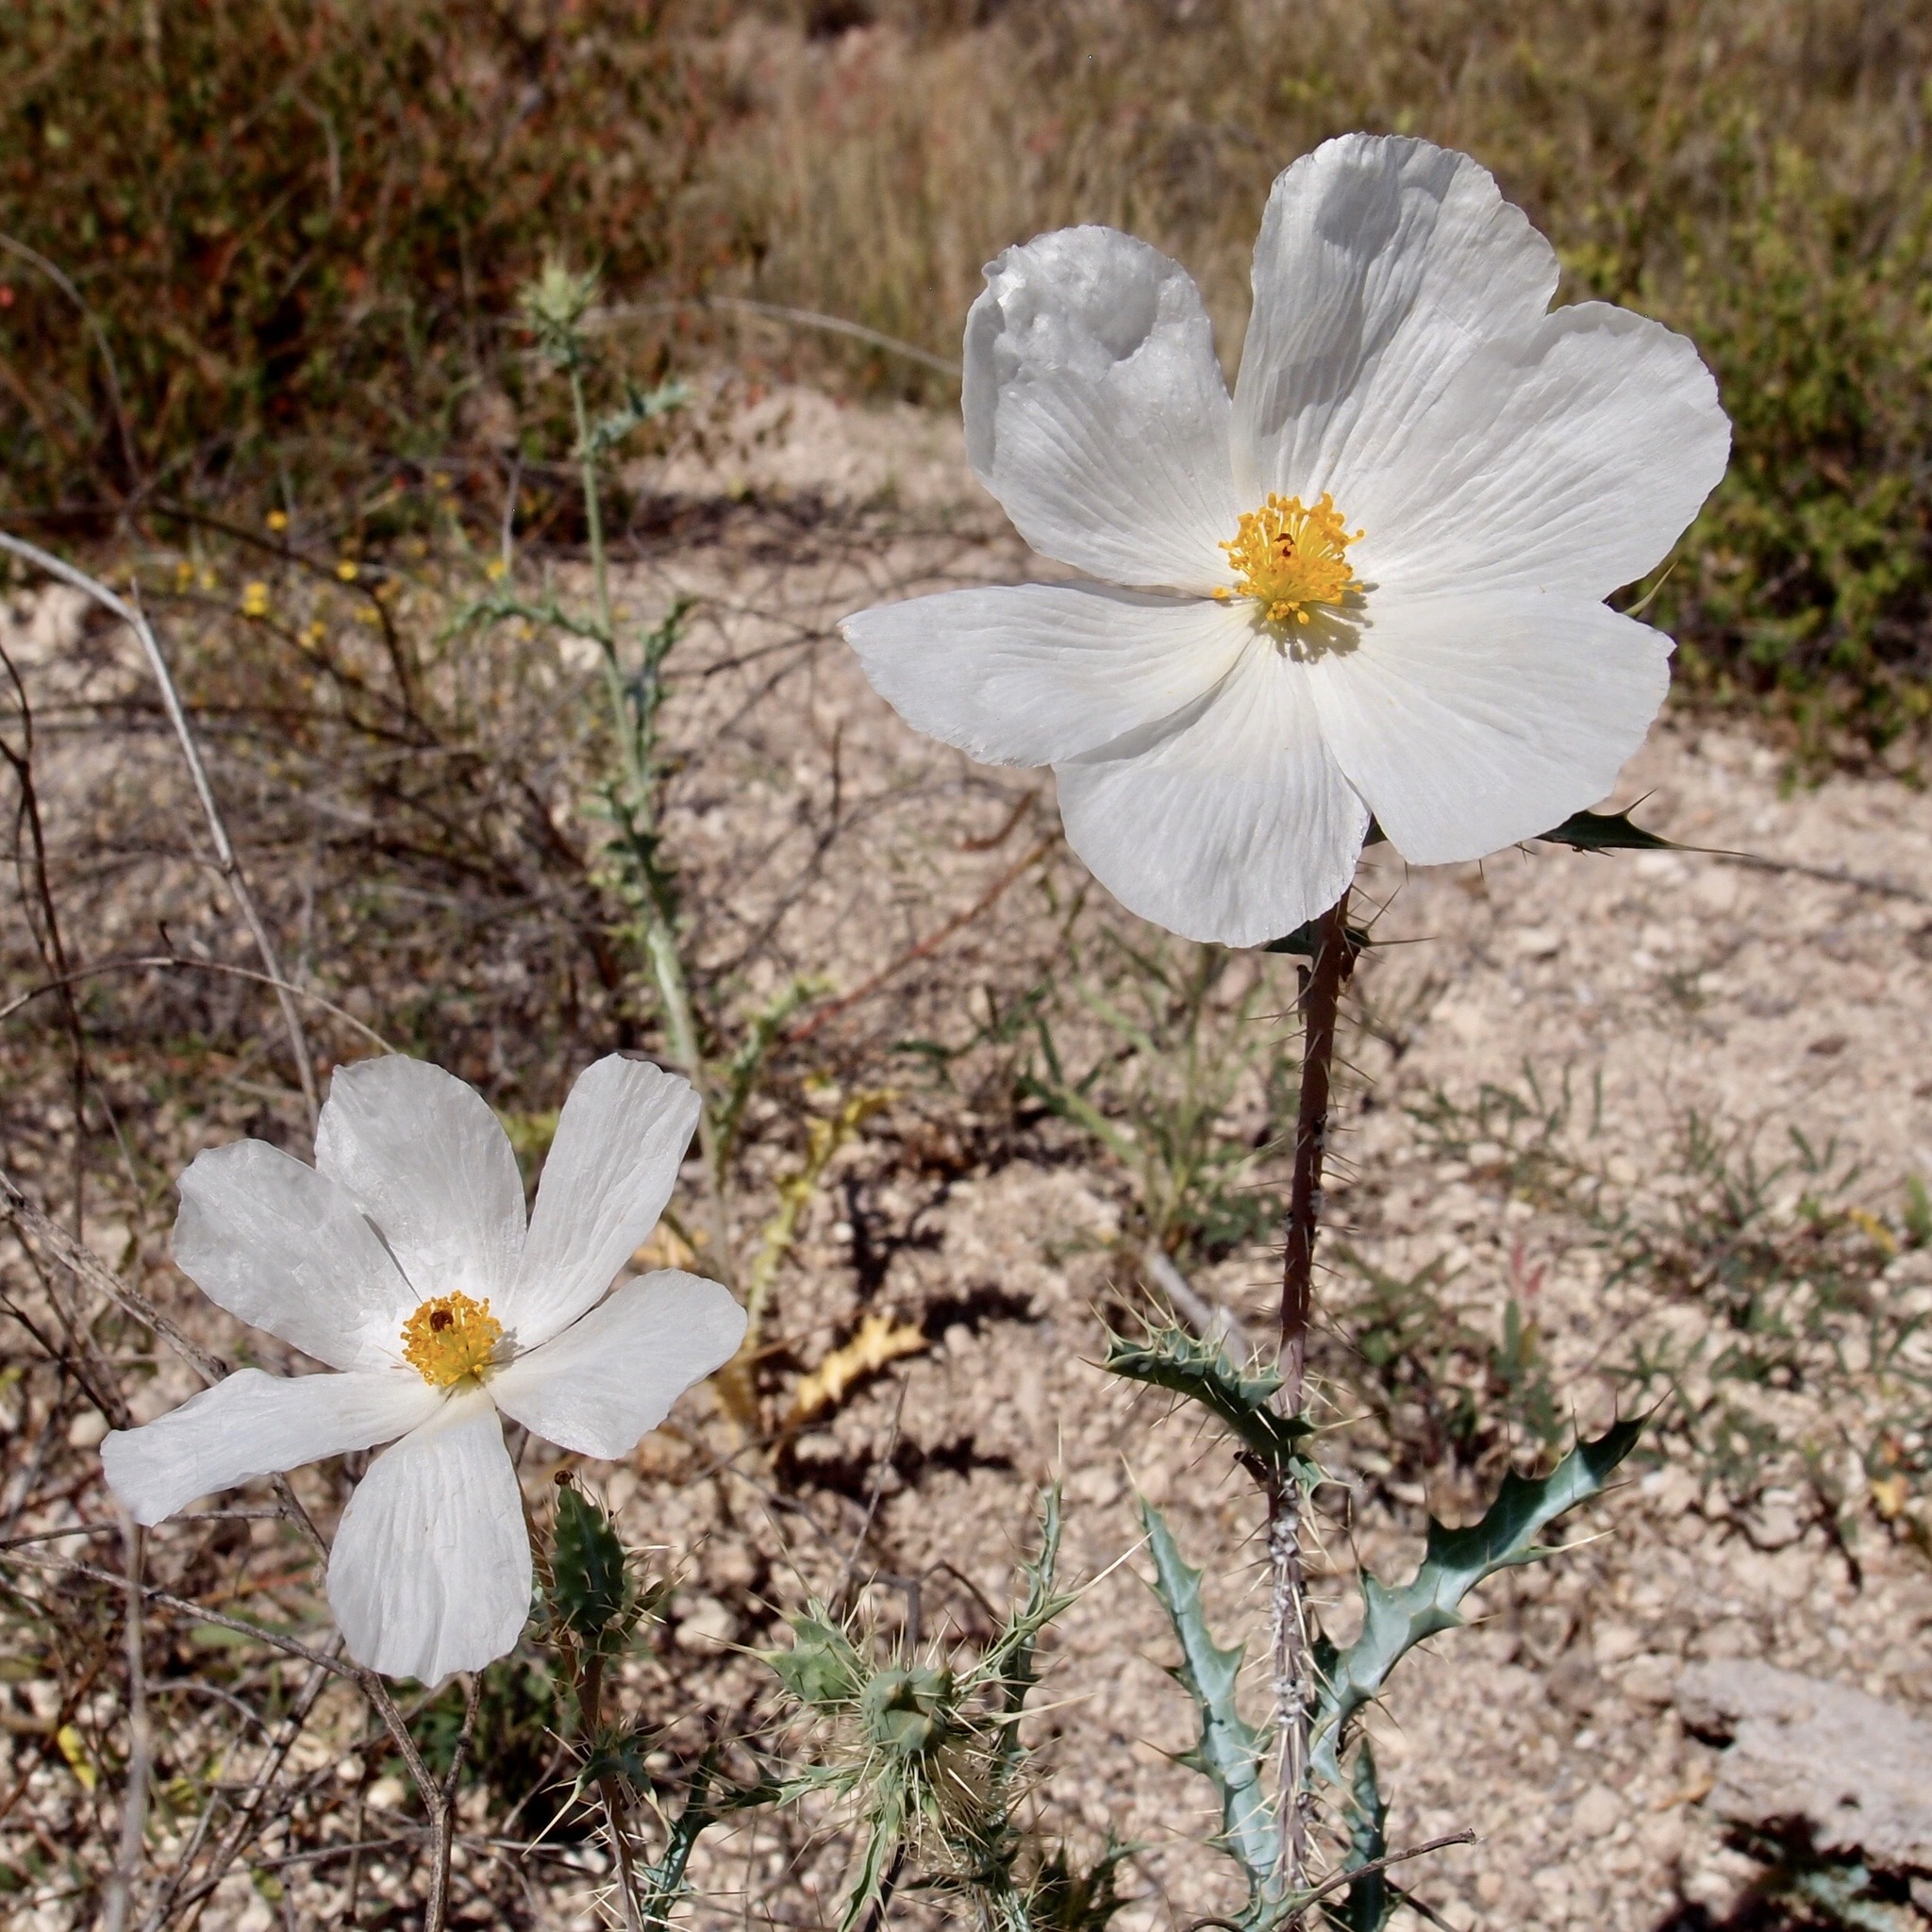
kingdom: Plantae
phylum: Tracheophyta
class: Magnoliopsida
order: Ranunculales
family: Papaveraceae
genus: Argemone
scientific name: Argemone gracilenta
